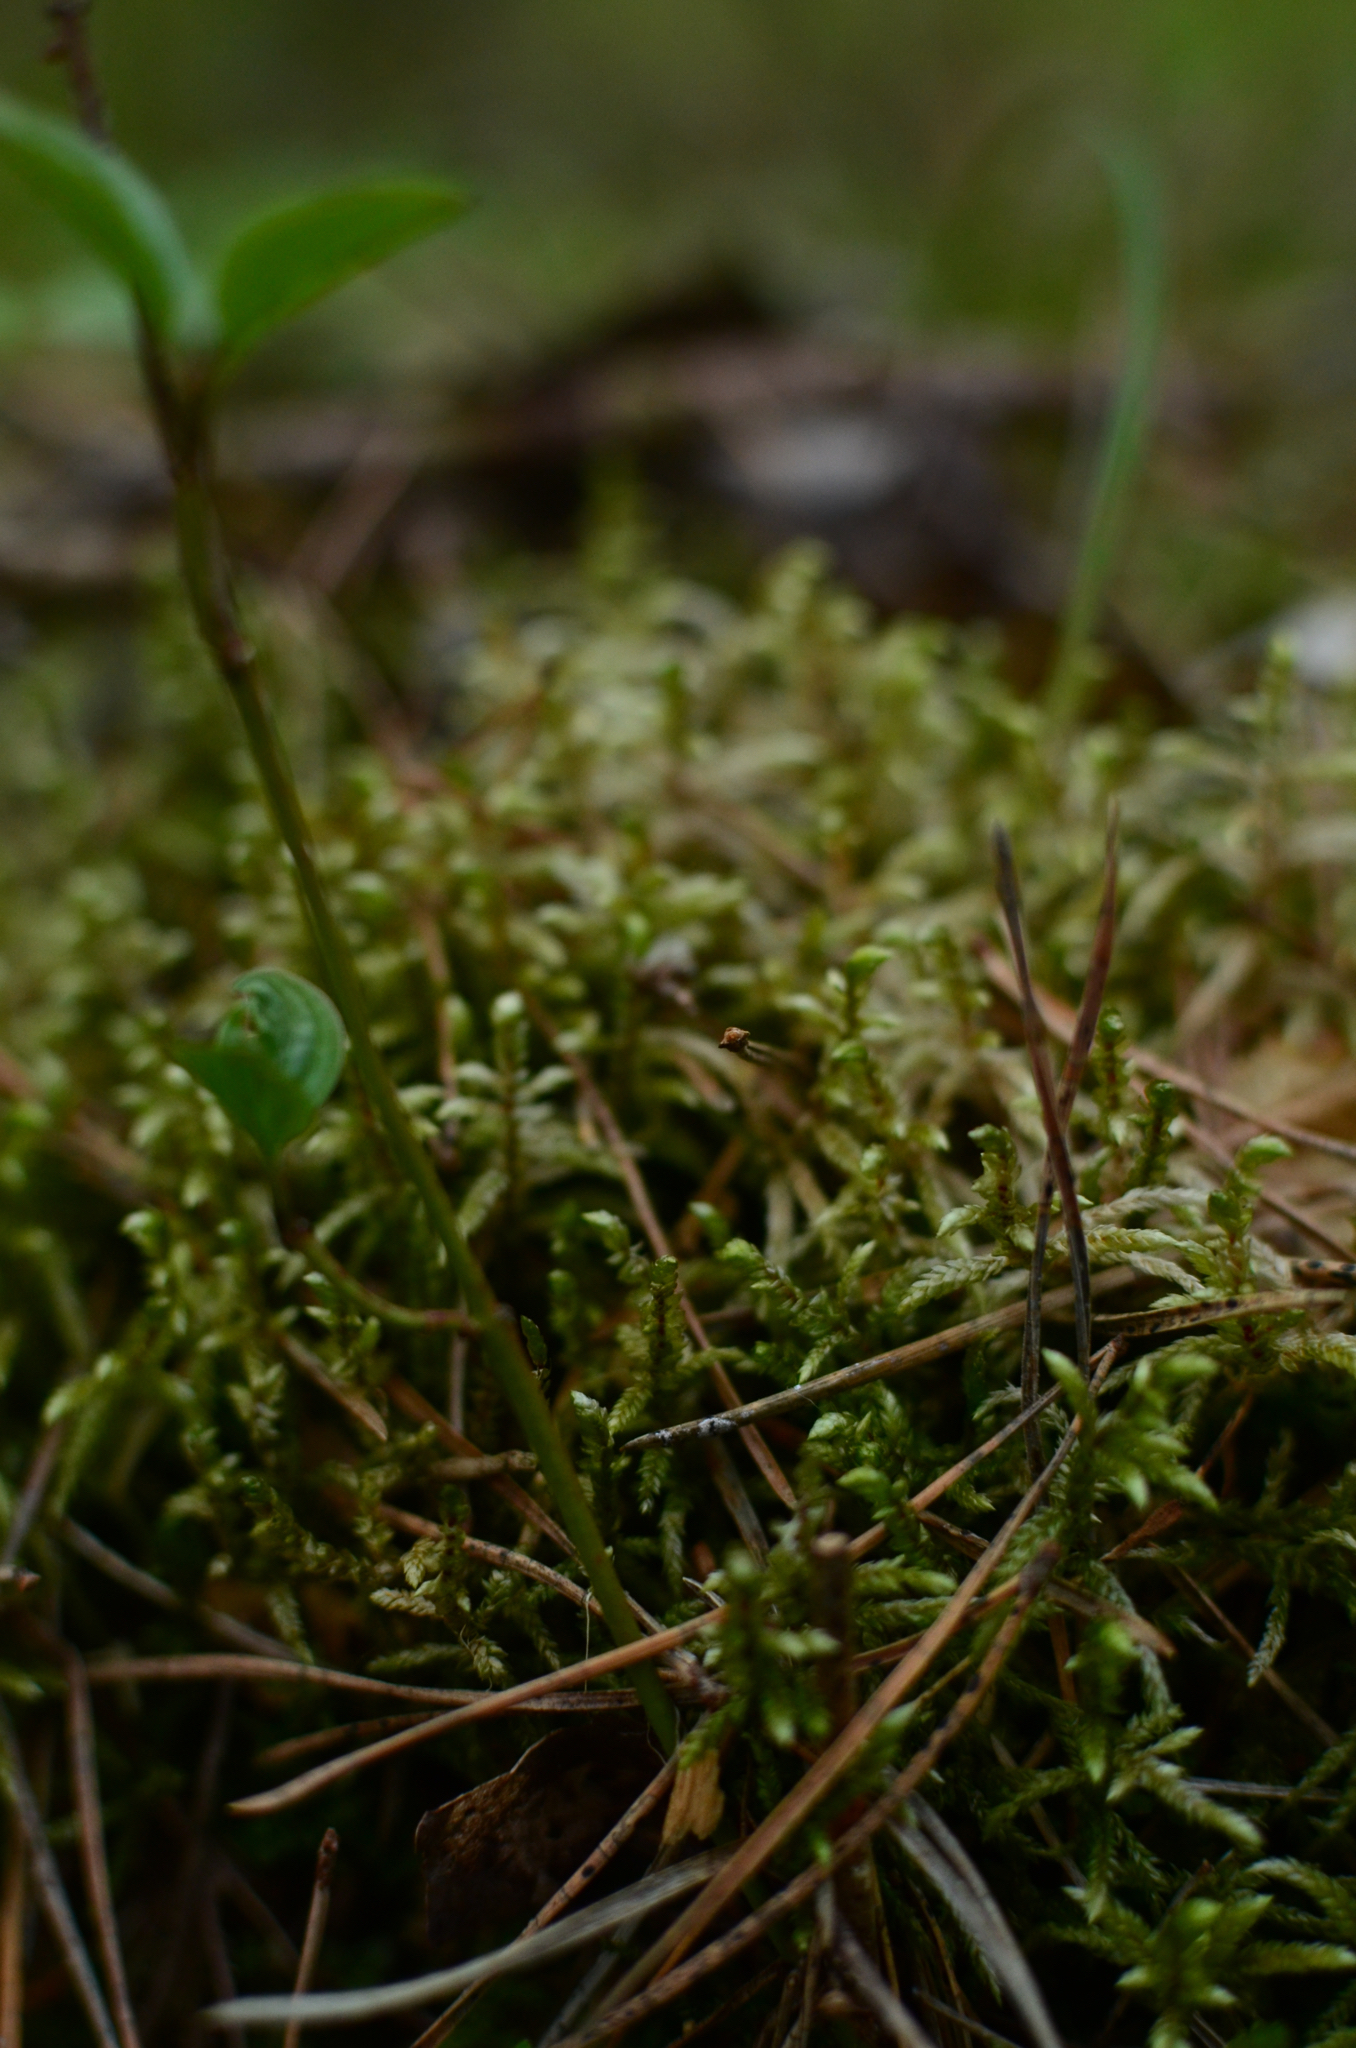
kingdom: Plantae
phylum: Bryophyta
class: Bryopsida
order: Hypnales
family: Hylocomiaceae
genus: Pleurozium
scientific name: Pleurozium schreberi
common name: Red-stemmed feather moss
